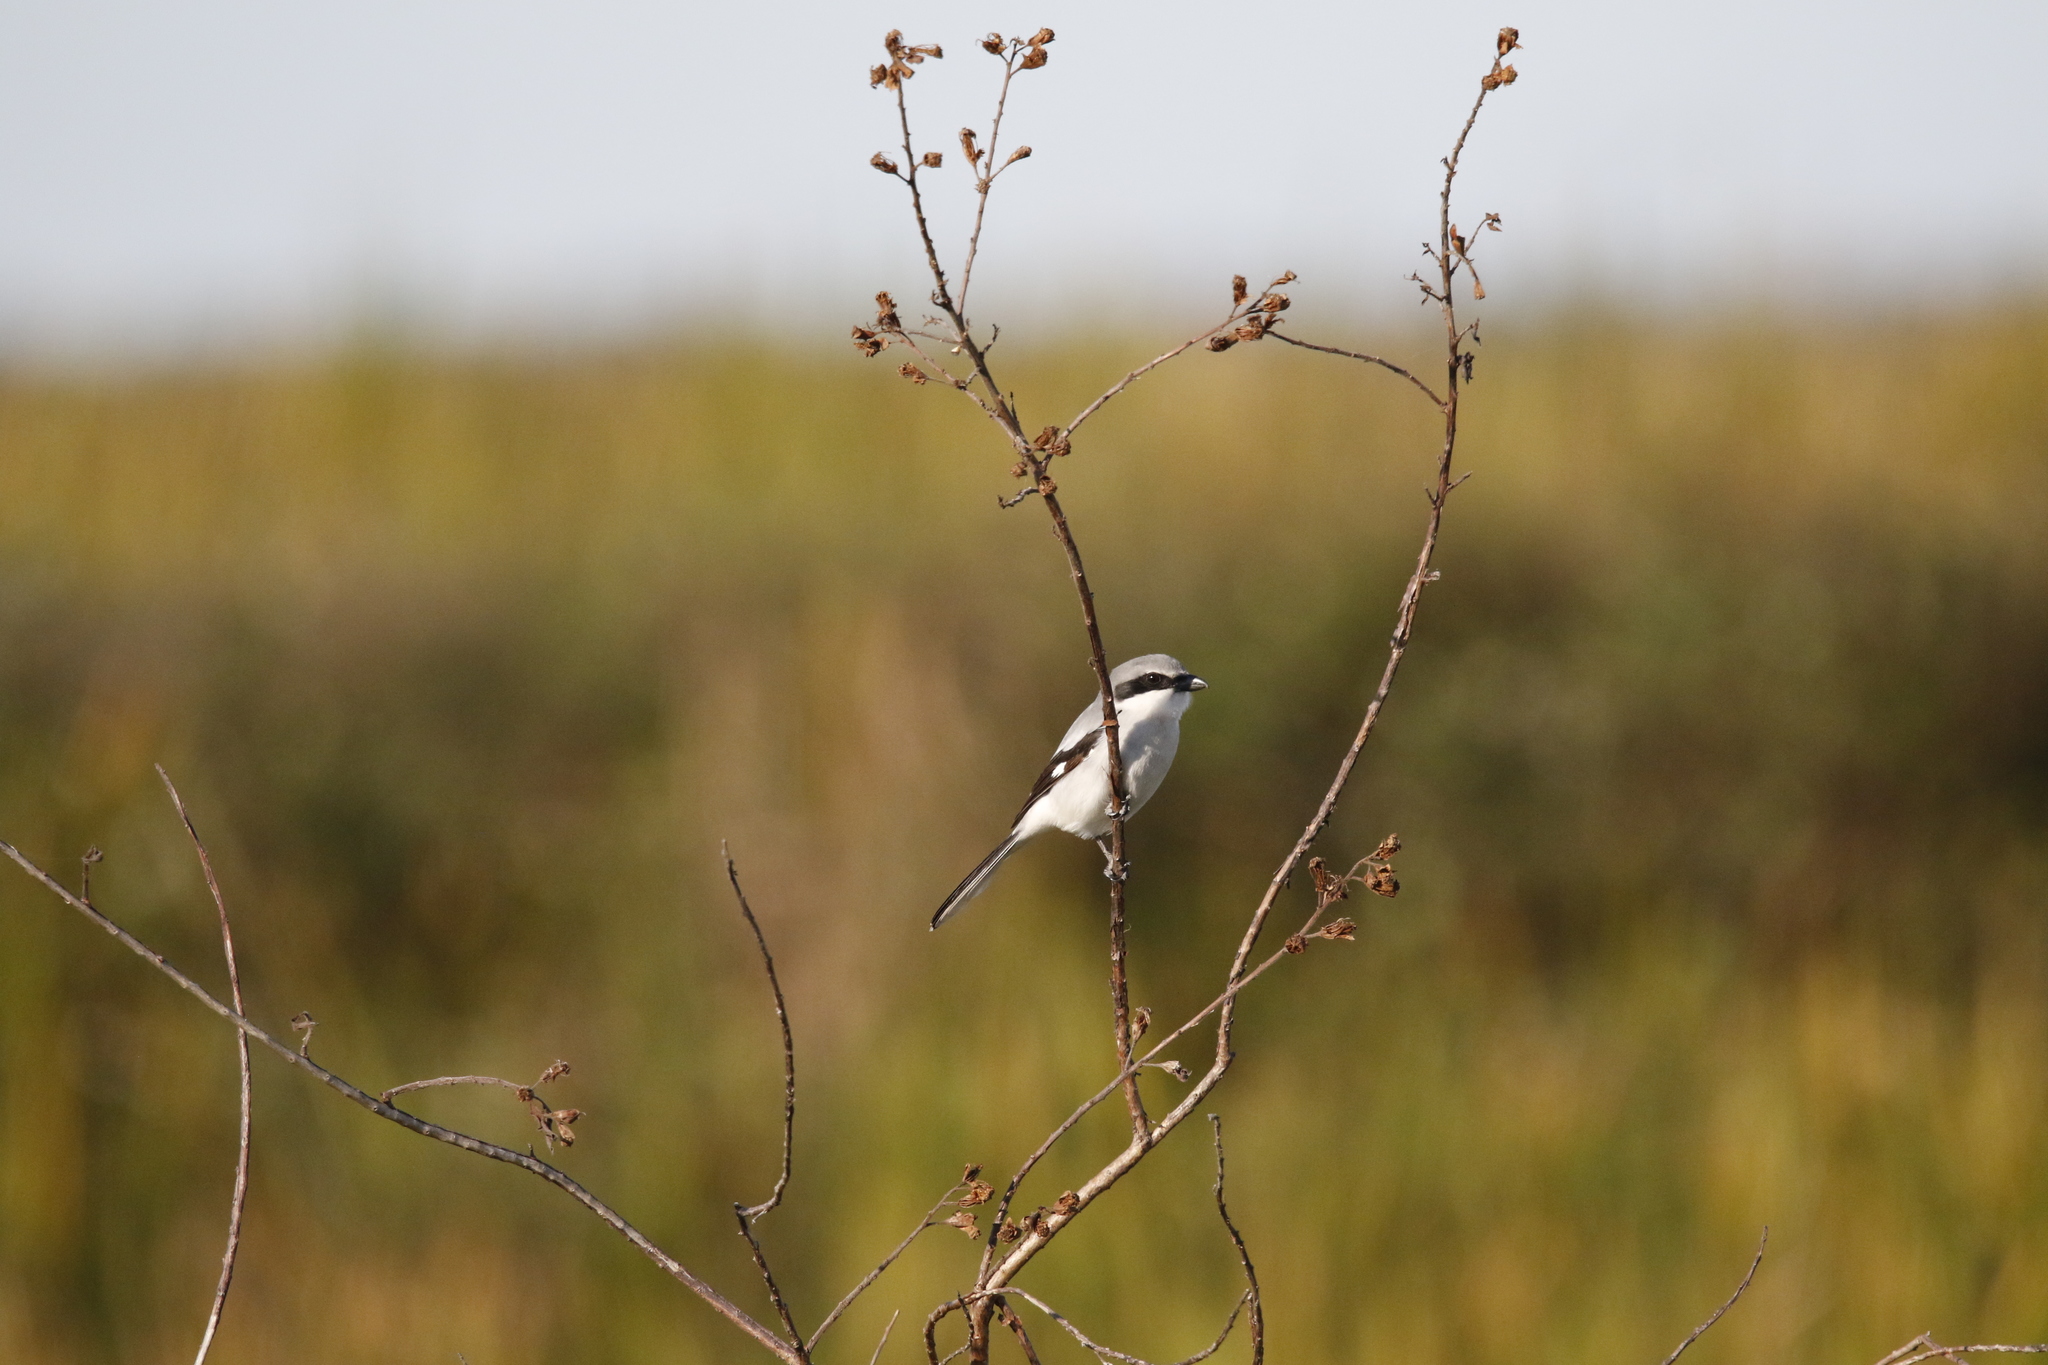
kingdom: Animalia
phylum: Chordata
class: Aves
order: Passeriformes
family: Laniidae
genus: Lanius
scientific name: Lanius ludovicianus
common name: Loggerhead shrike
